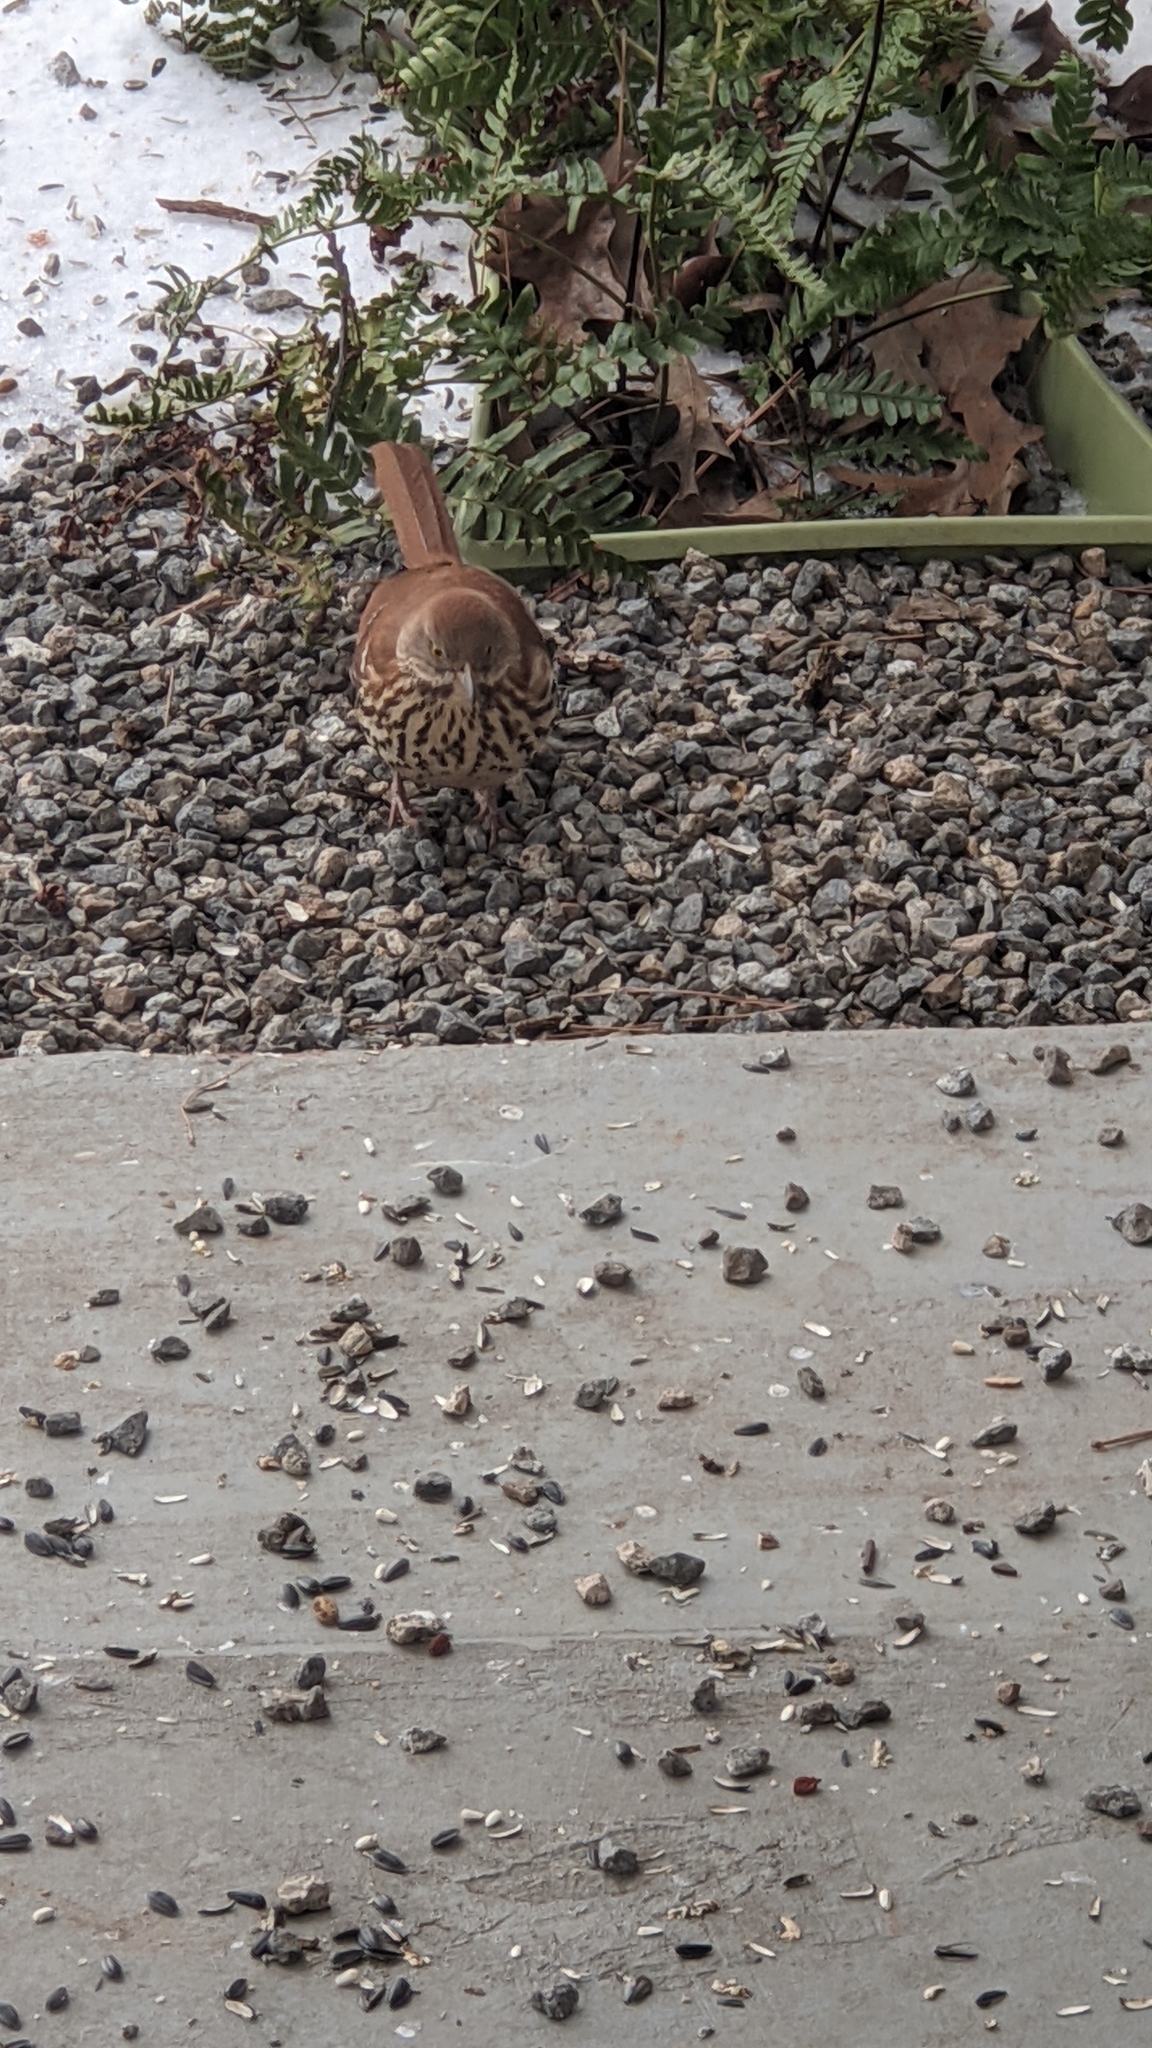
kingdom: Animalia
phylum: Chordata
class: Aves
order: Passeriformes
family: Mimidae
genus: Toxostoma
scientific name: Toxostoma rufum
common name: Brown thrasher
